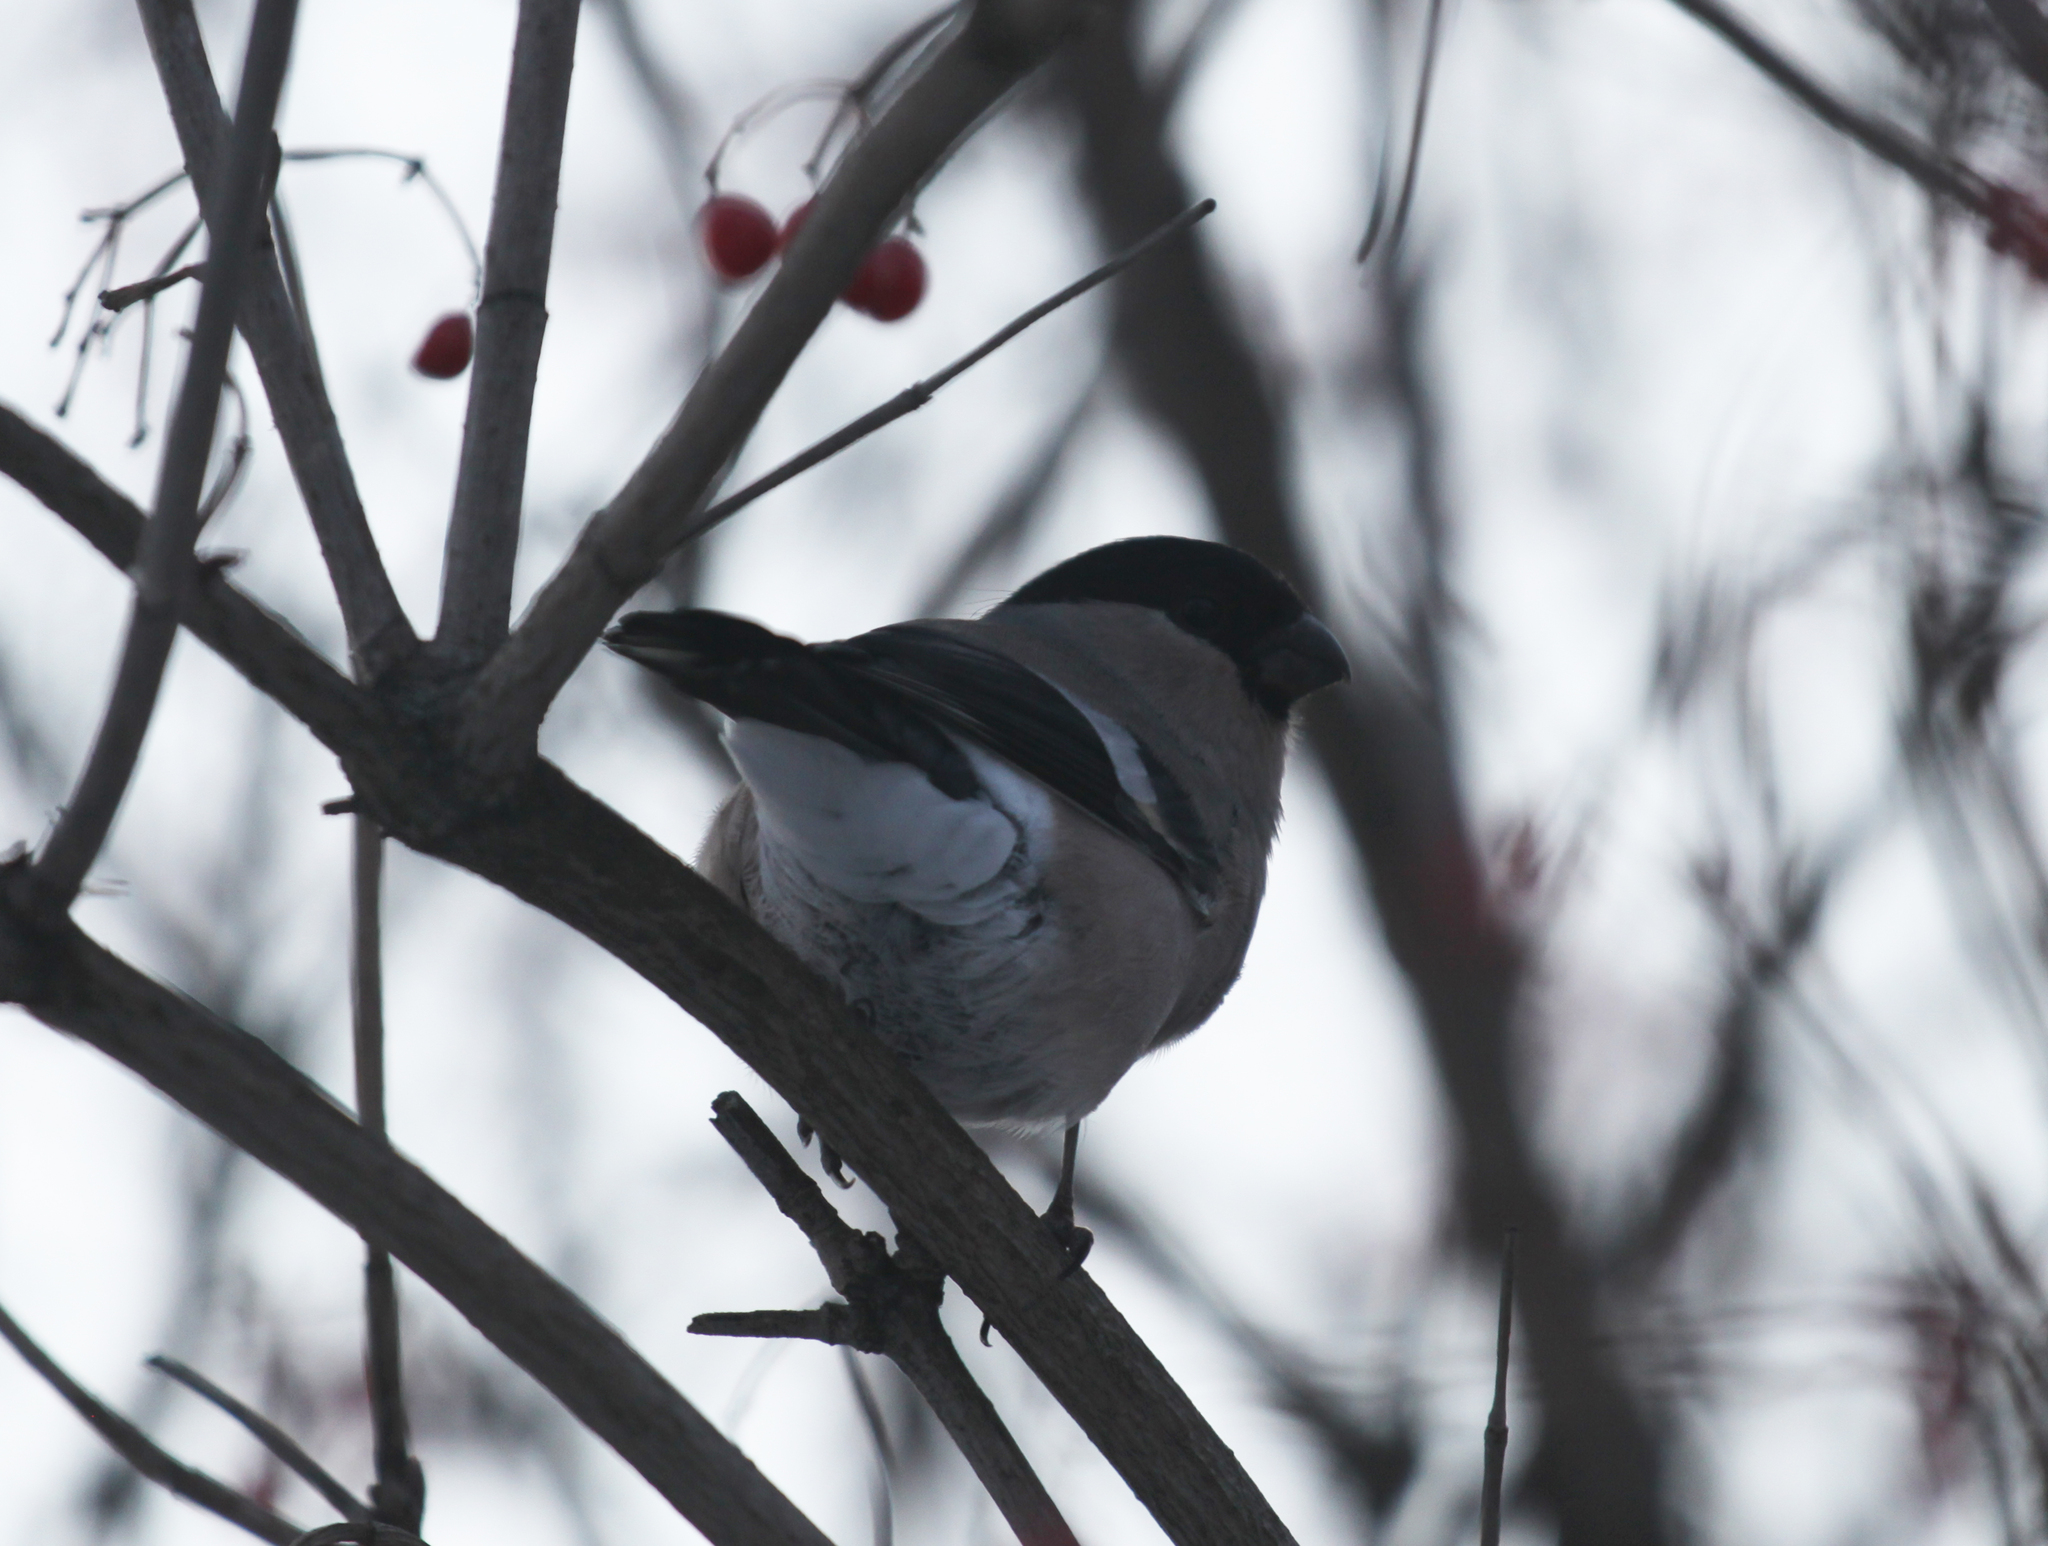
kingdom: Animalia
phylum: Chordata
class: Aves
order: Passeriformes
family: Fringillidae
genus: Pyrrhula
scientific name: Pyrrhula pyrrhula
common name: Eurasian bullfinch
